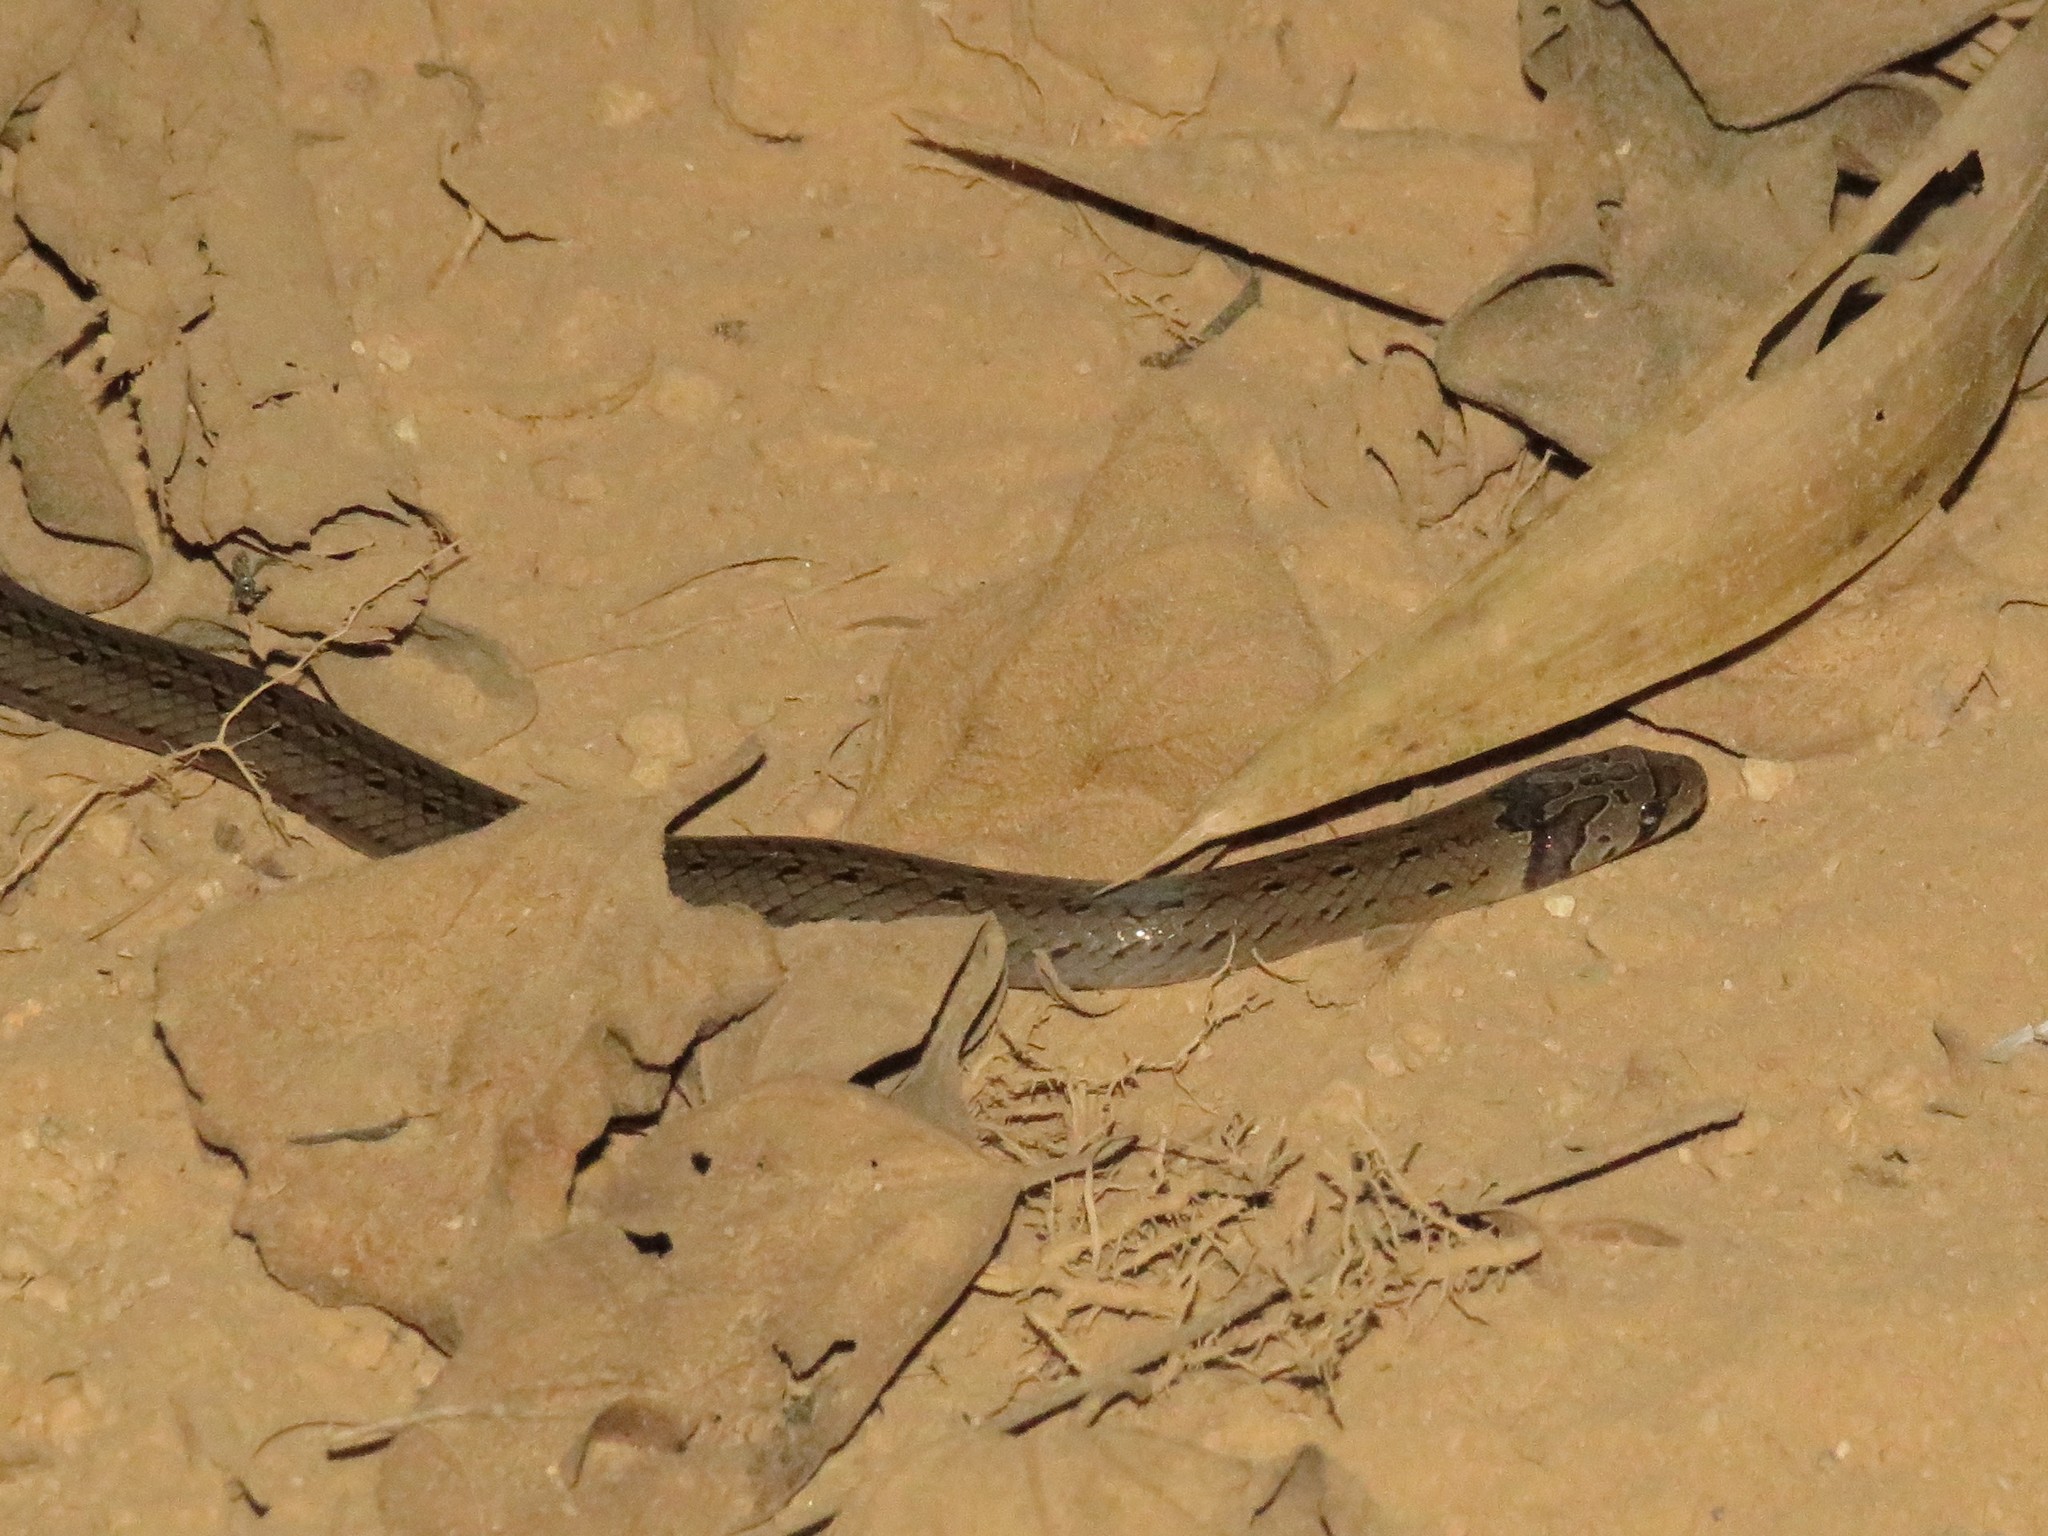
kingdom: Animalia
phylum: Chordata
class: Squamata
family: Colubridae
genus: Oligodon
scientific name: Oligodon taeniatus
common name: Striped kukri snake
